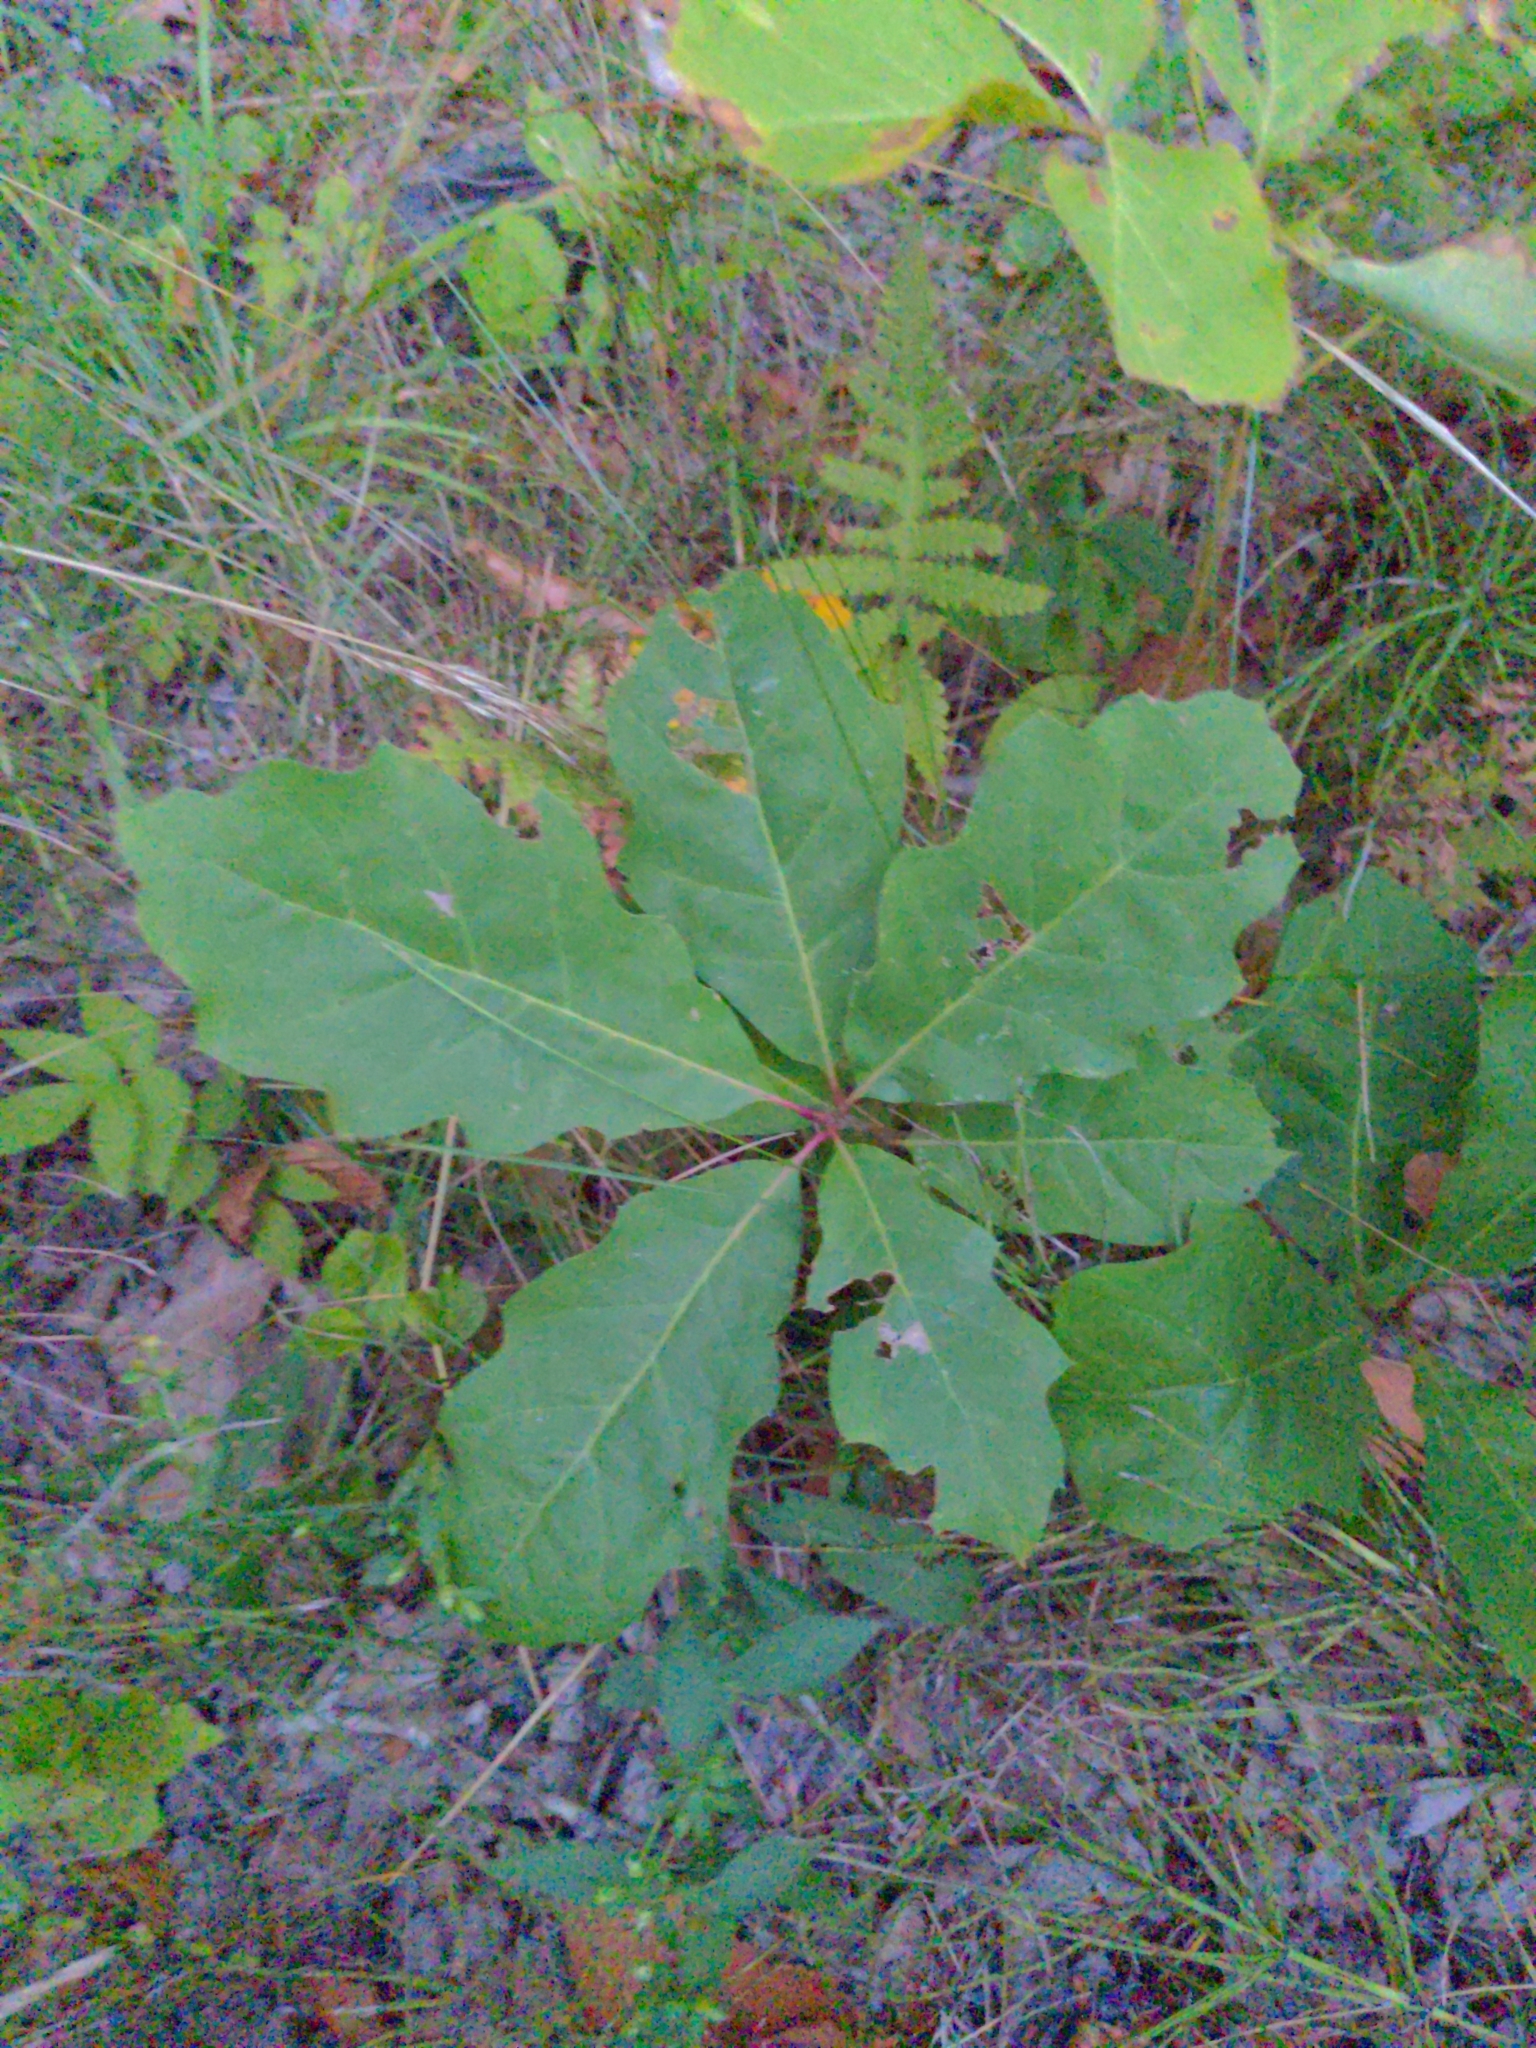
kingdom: Plantae
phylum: Tracheophyta
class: Magnoliopsida
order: Fagales
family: Fagaceae
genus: Quercus
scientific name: Quercus rubra
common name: Red oak
